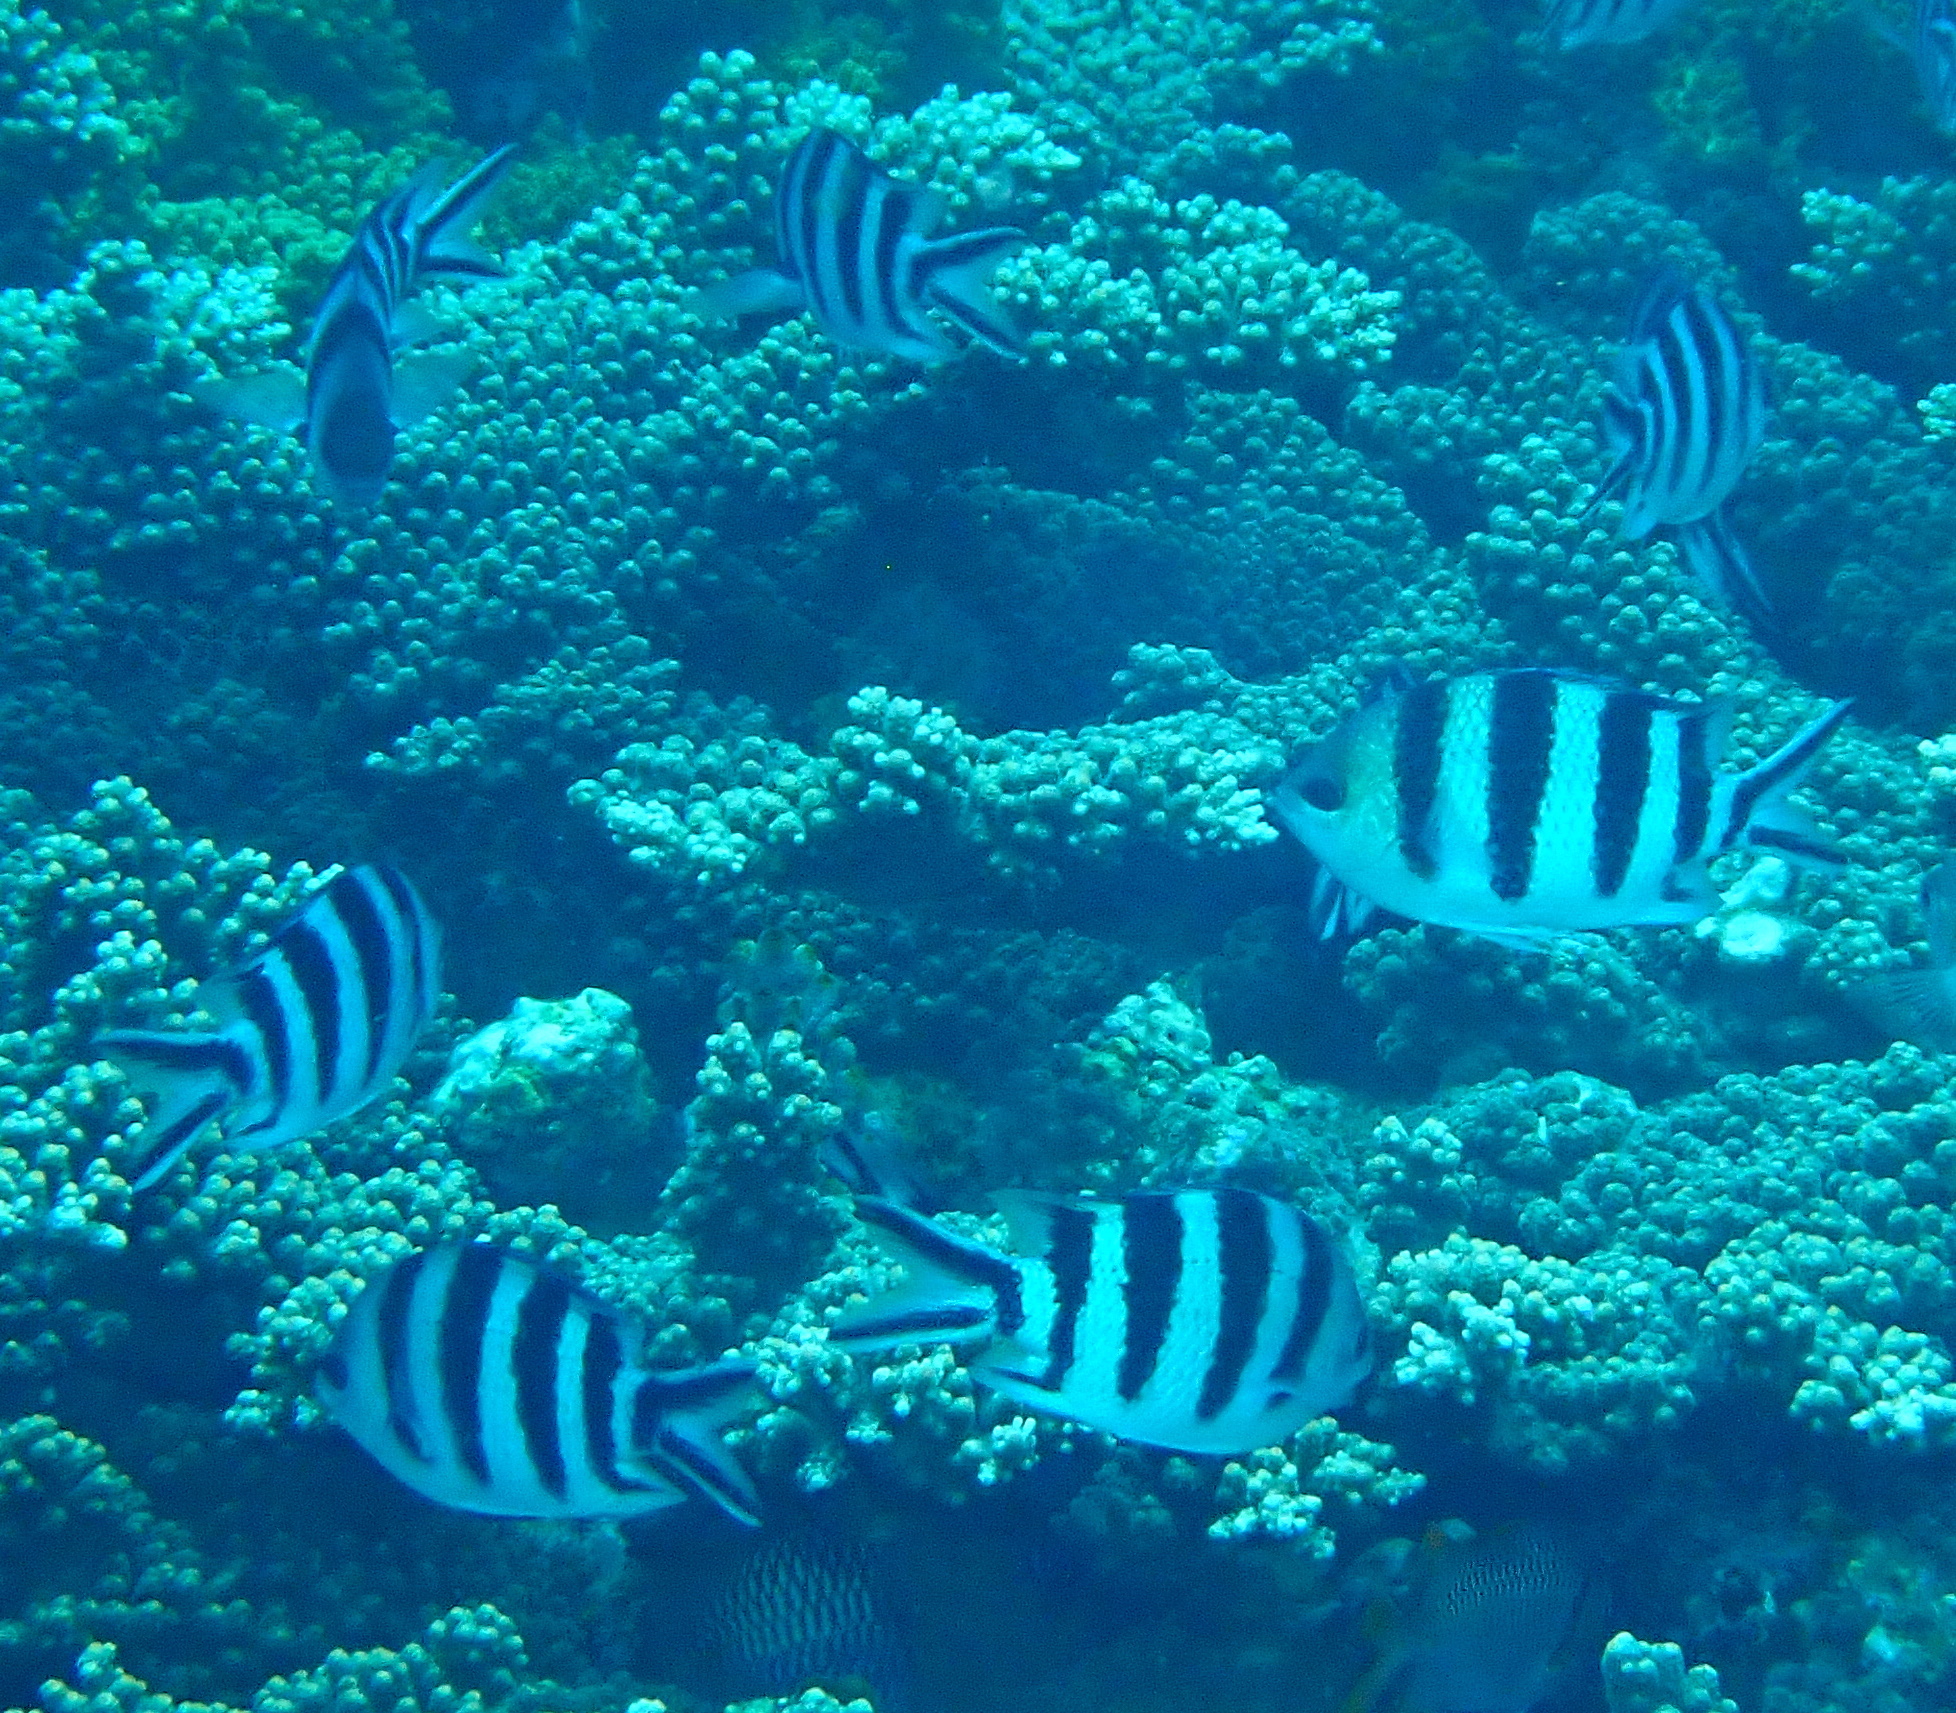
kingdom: Animalia
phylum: Chordata
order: Perciformes
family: Pomacentridae
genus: Abudefduf
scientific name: Abudefduf sexfasciatus
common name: Scissortail sergeant
